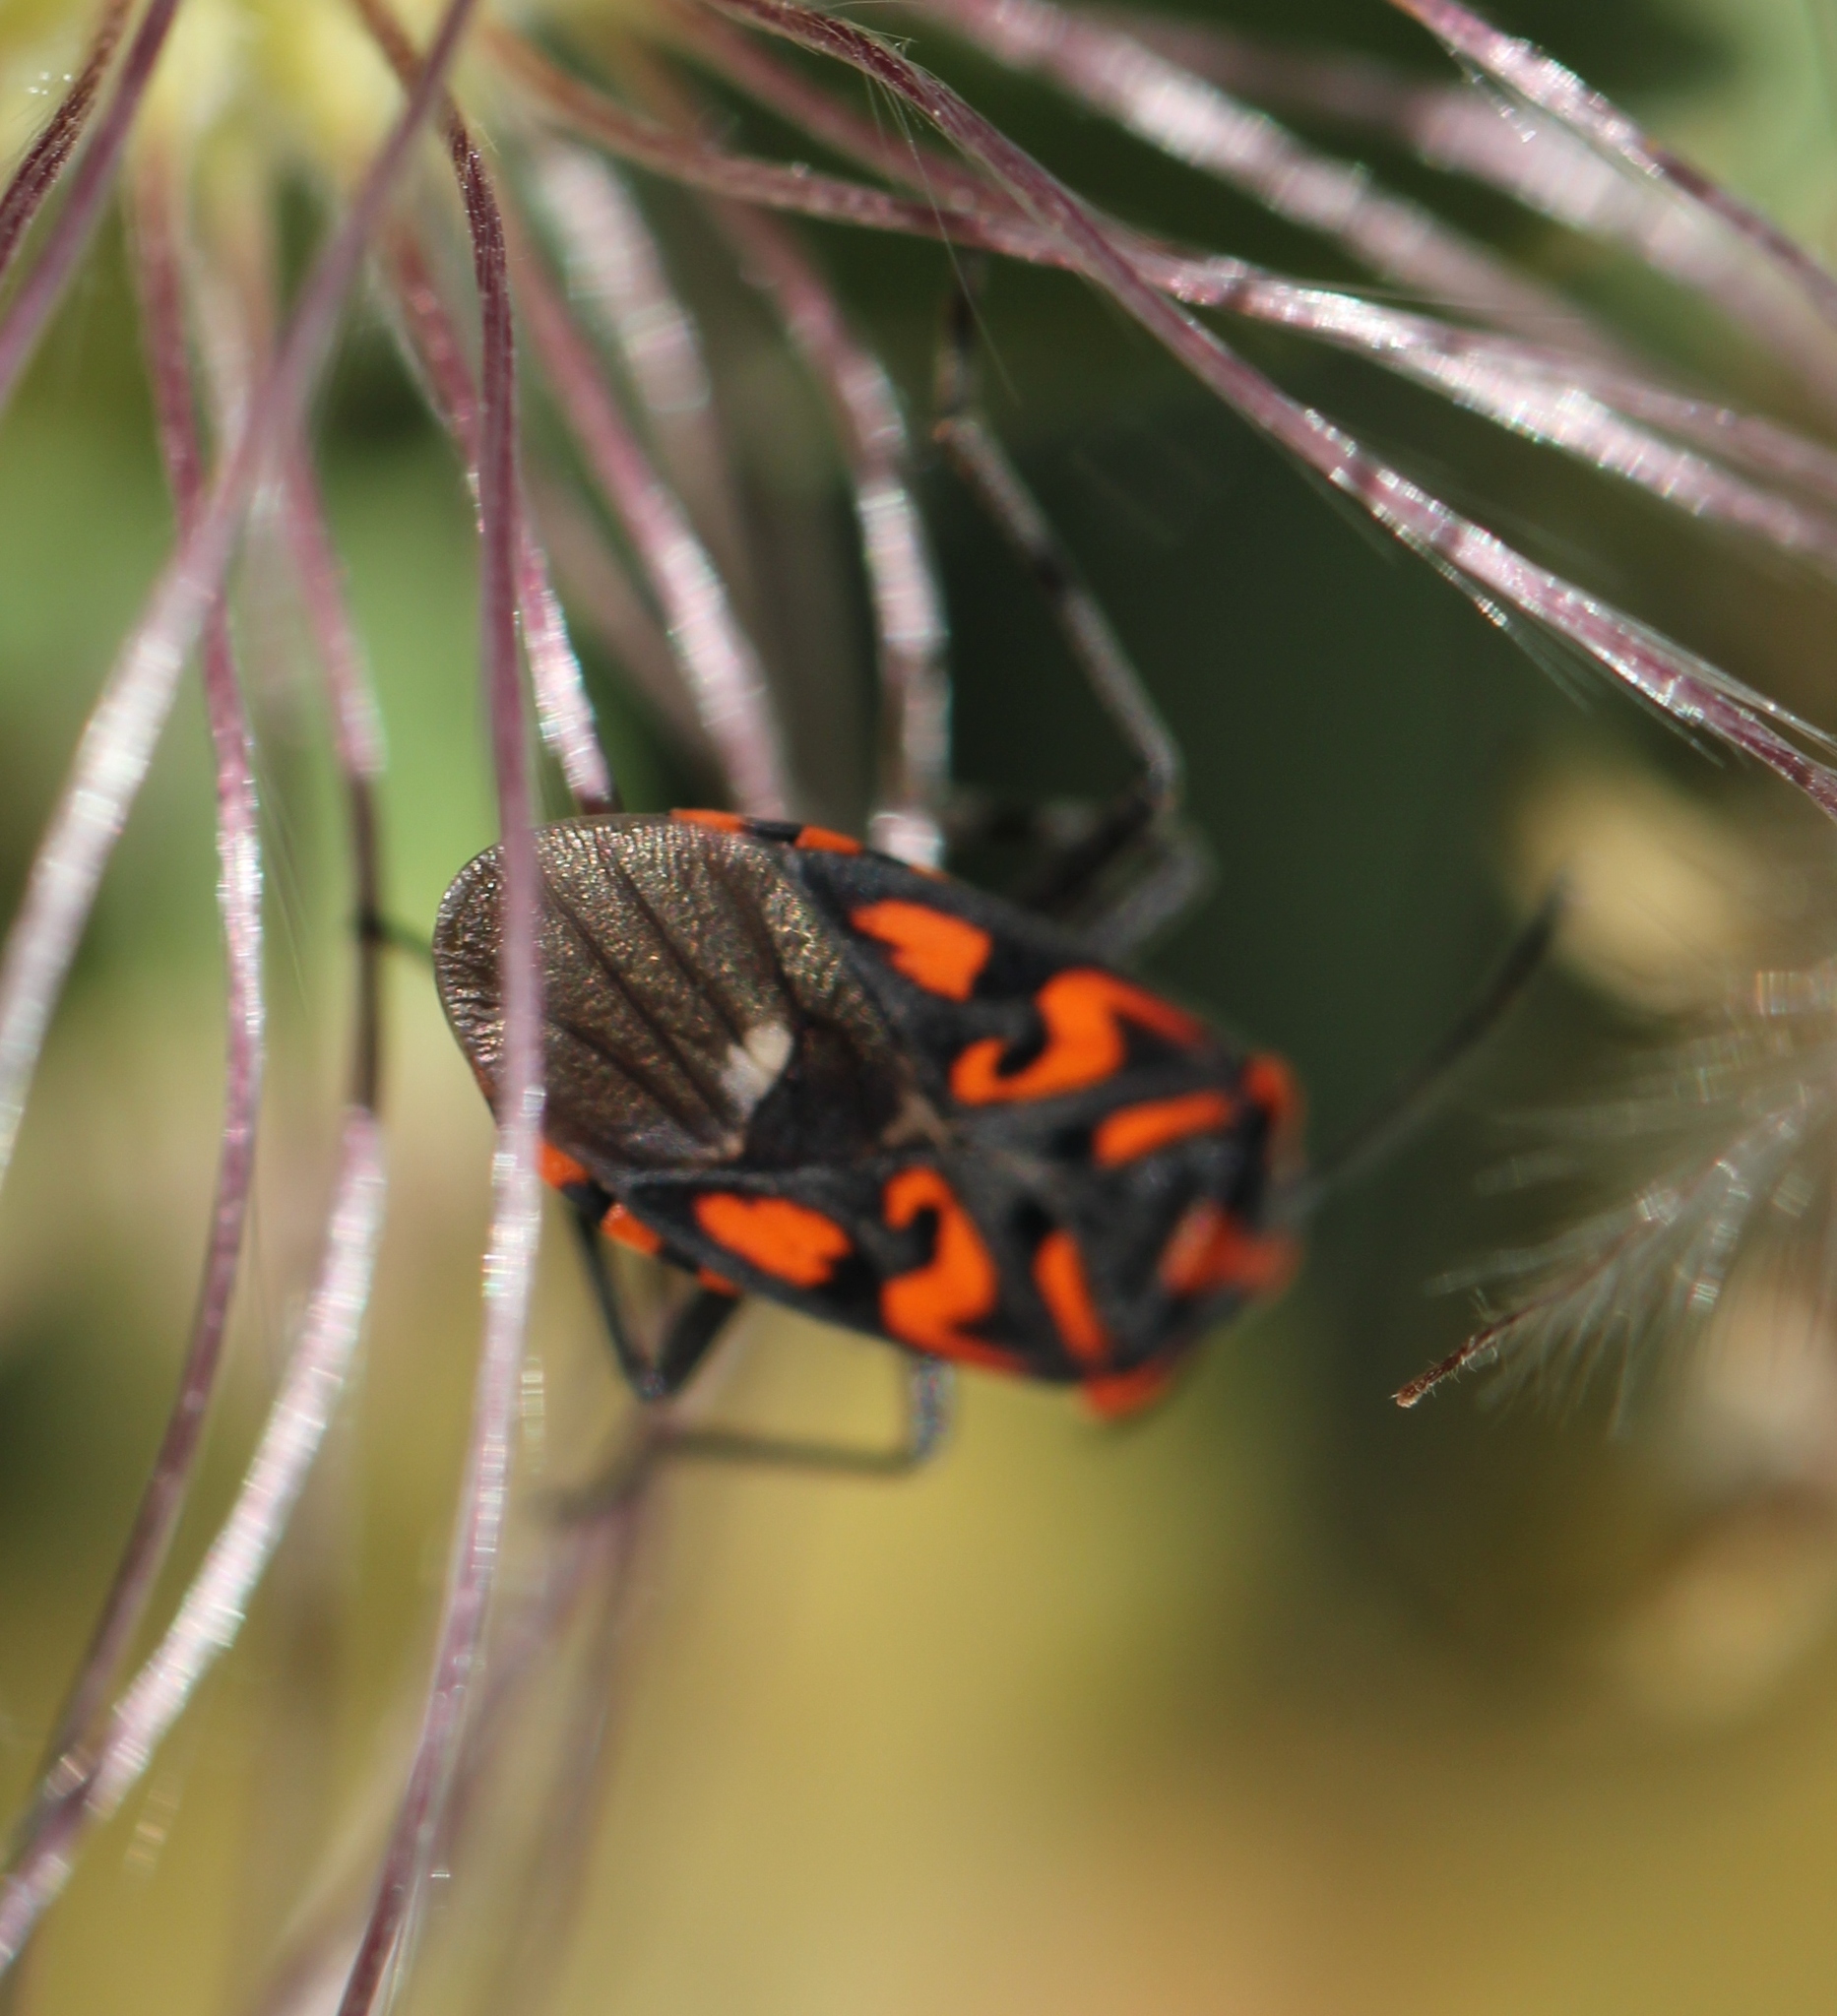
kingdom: Animalia
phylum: Arthropoda
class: Insecta
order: Hemiptera
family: Lygaeidae
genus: Spilostethus
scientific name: Spilostethus saxatilis
